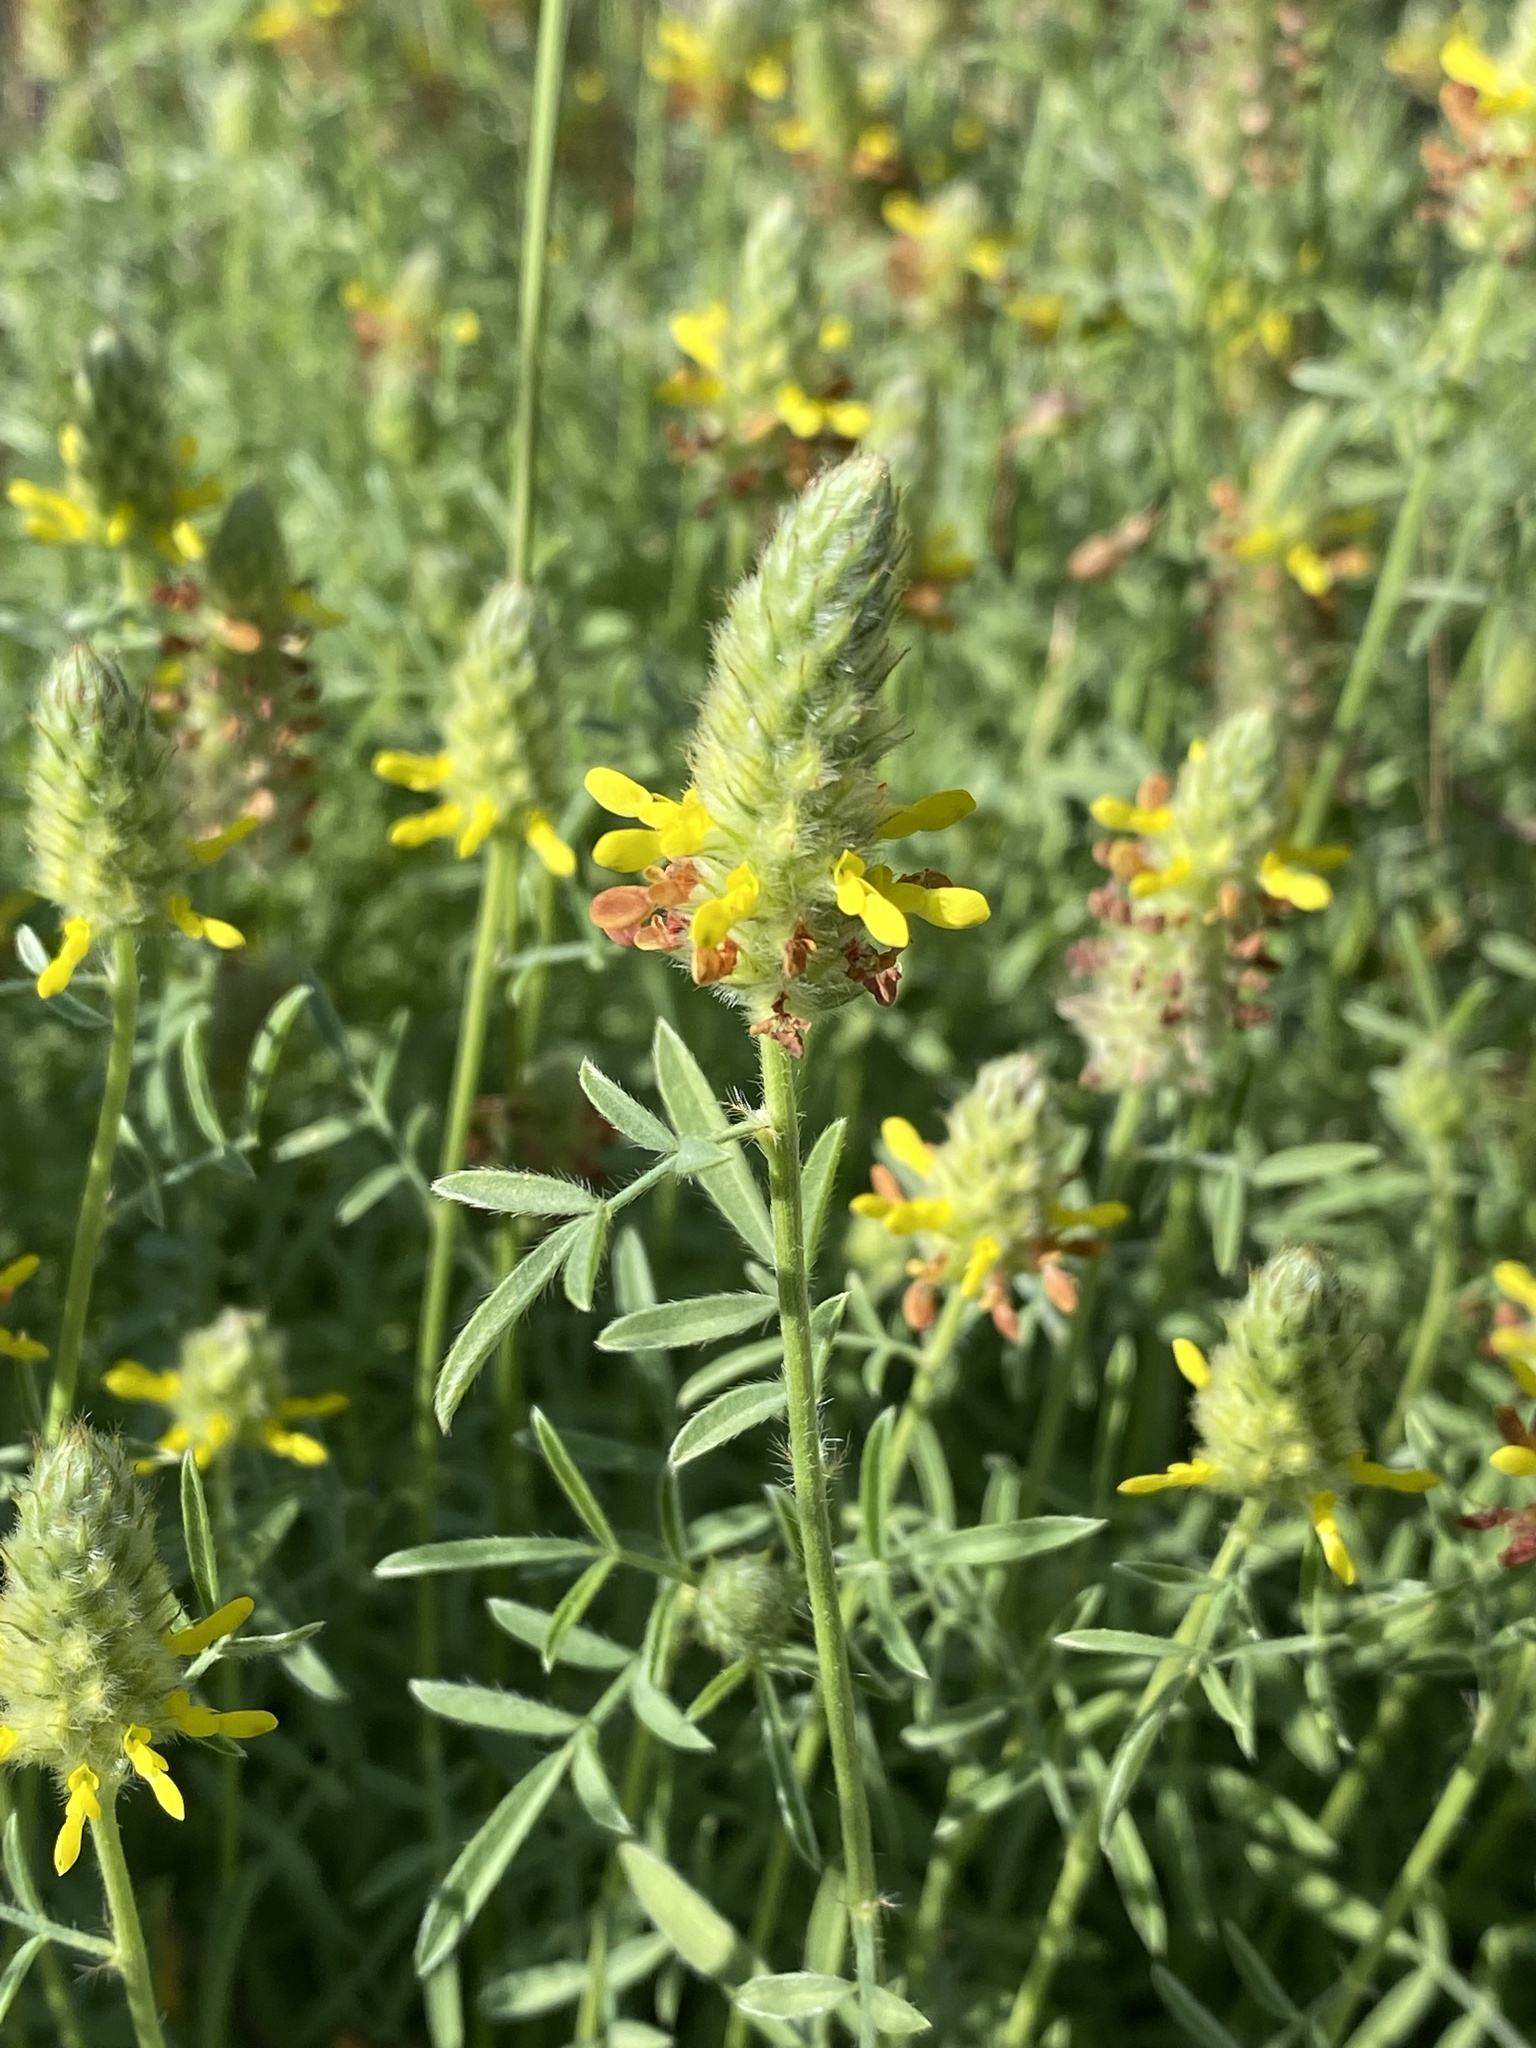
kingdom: Plantae
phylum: Tracheophyta
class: Magnoliopsida
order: Fabales
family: Fabaceae
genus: Dalea
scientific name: Dalea nana
